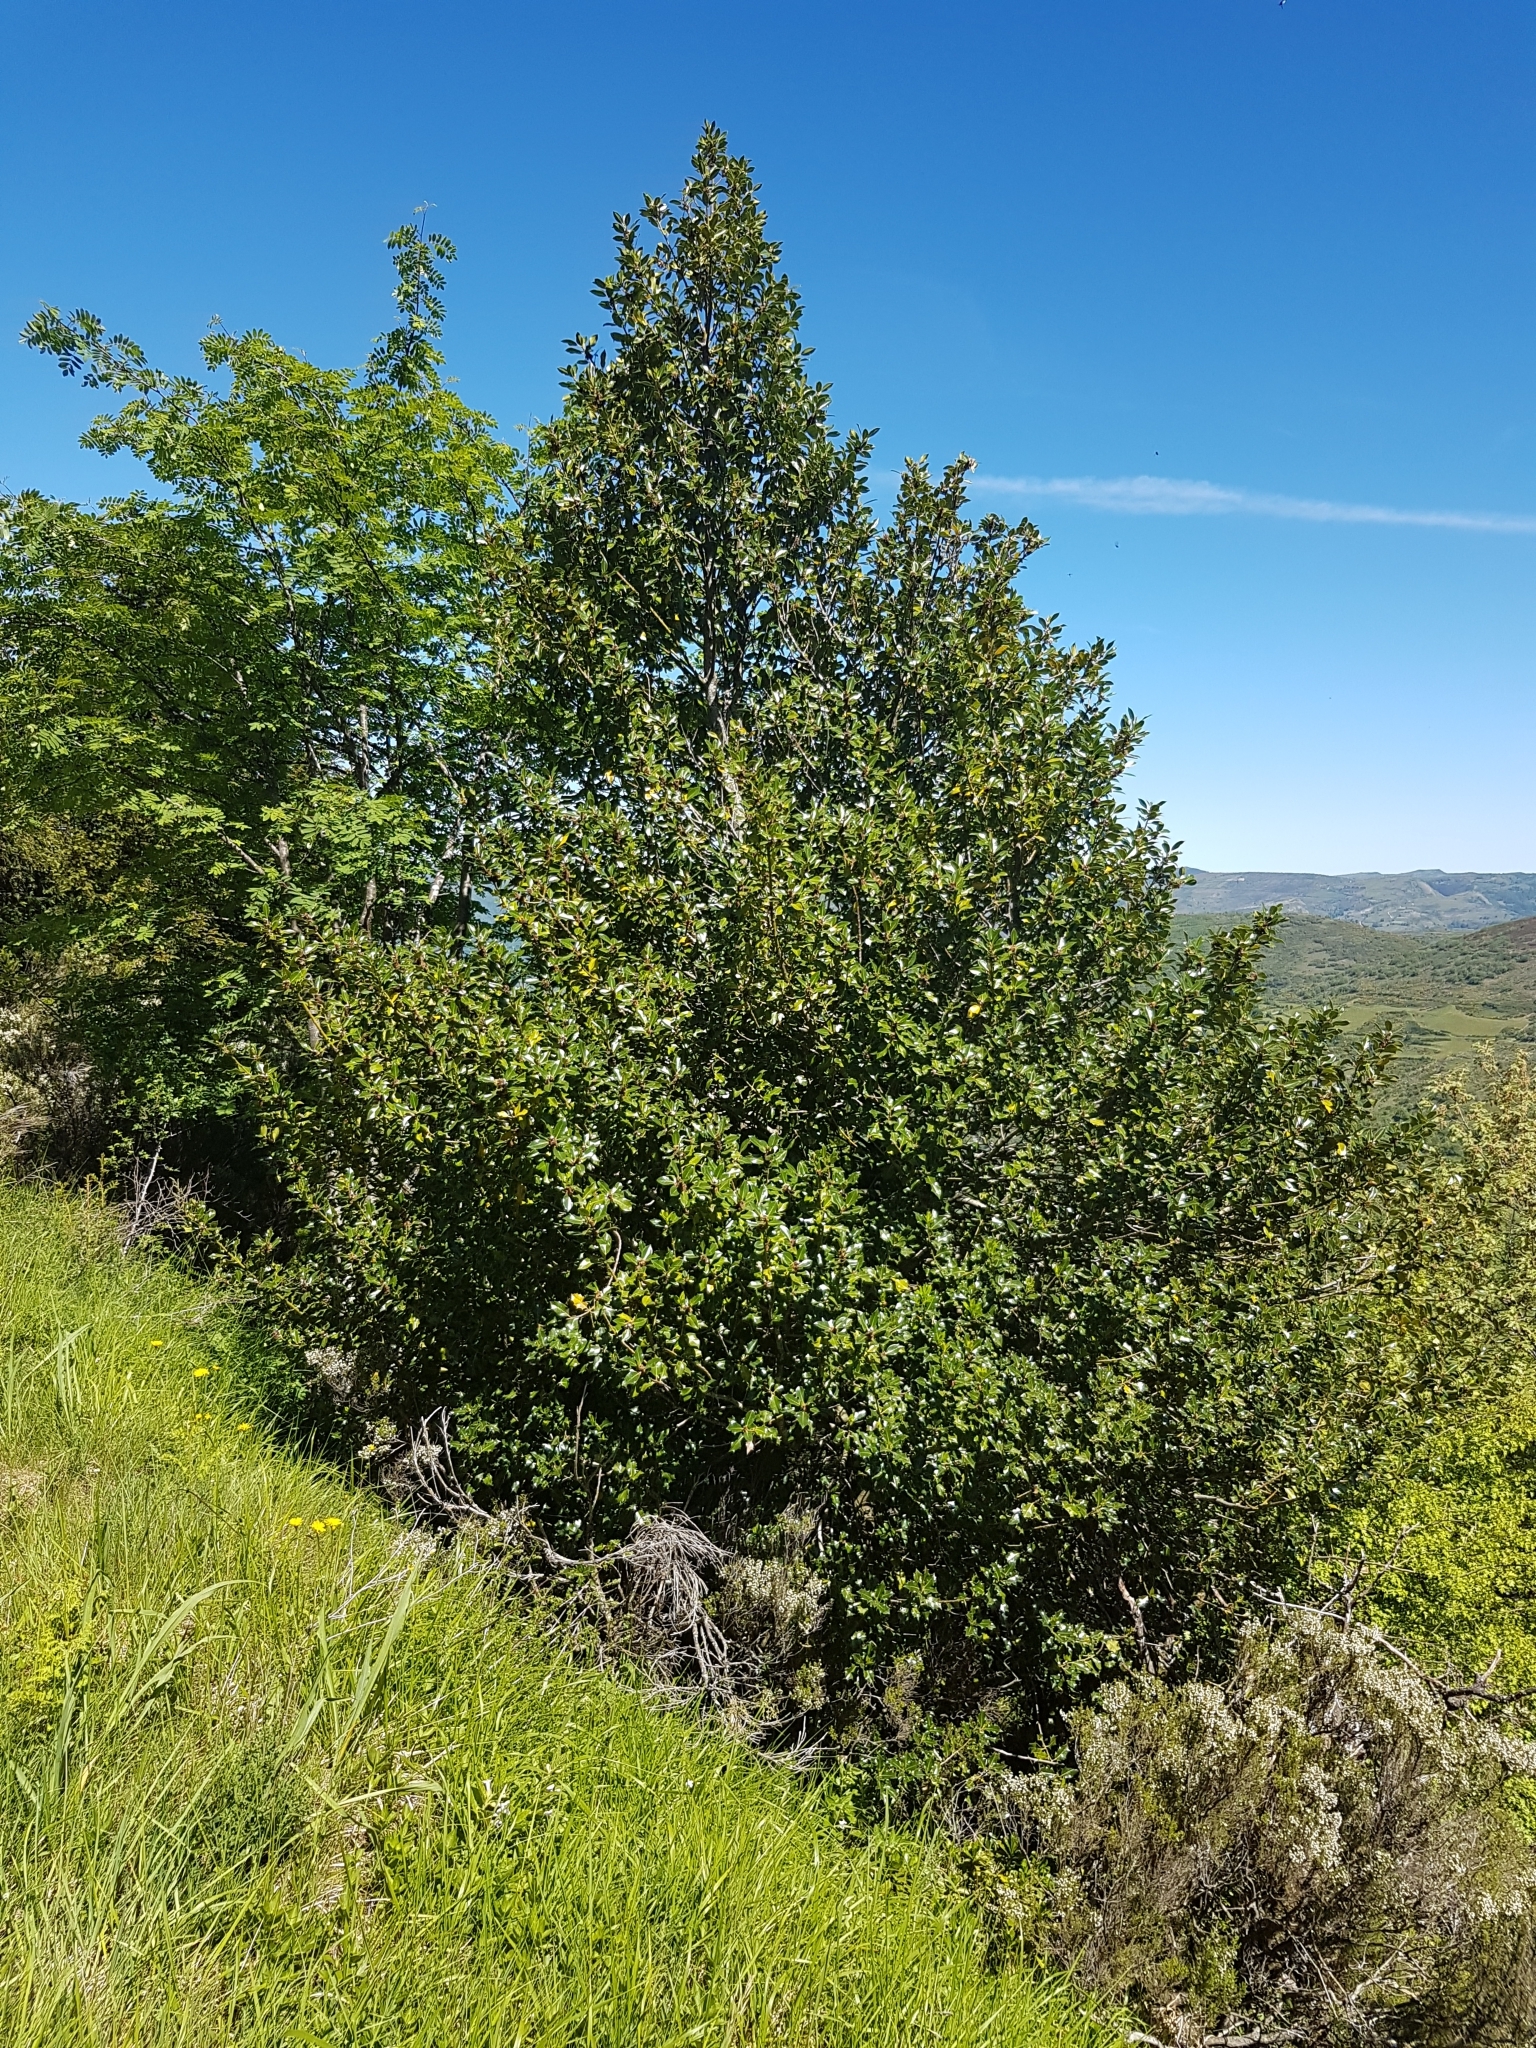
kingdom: Plantae
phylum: Tracheophyta
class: Magnoliopsida
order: Aquifoliales
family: Aquifoliaceae
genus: Ilex
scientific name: Ilex aquifolium
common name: English holly
